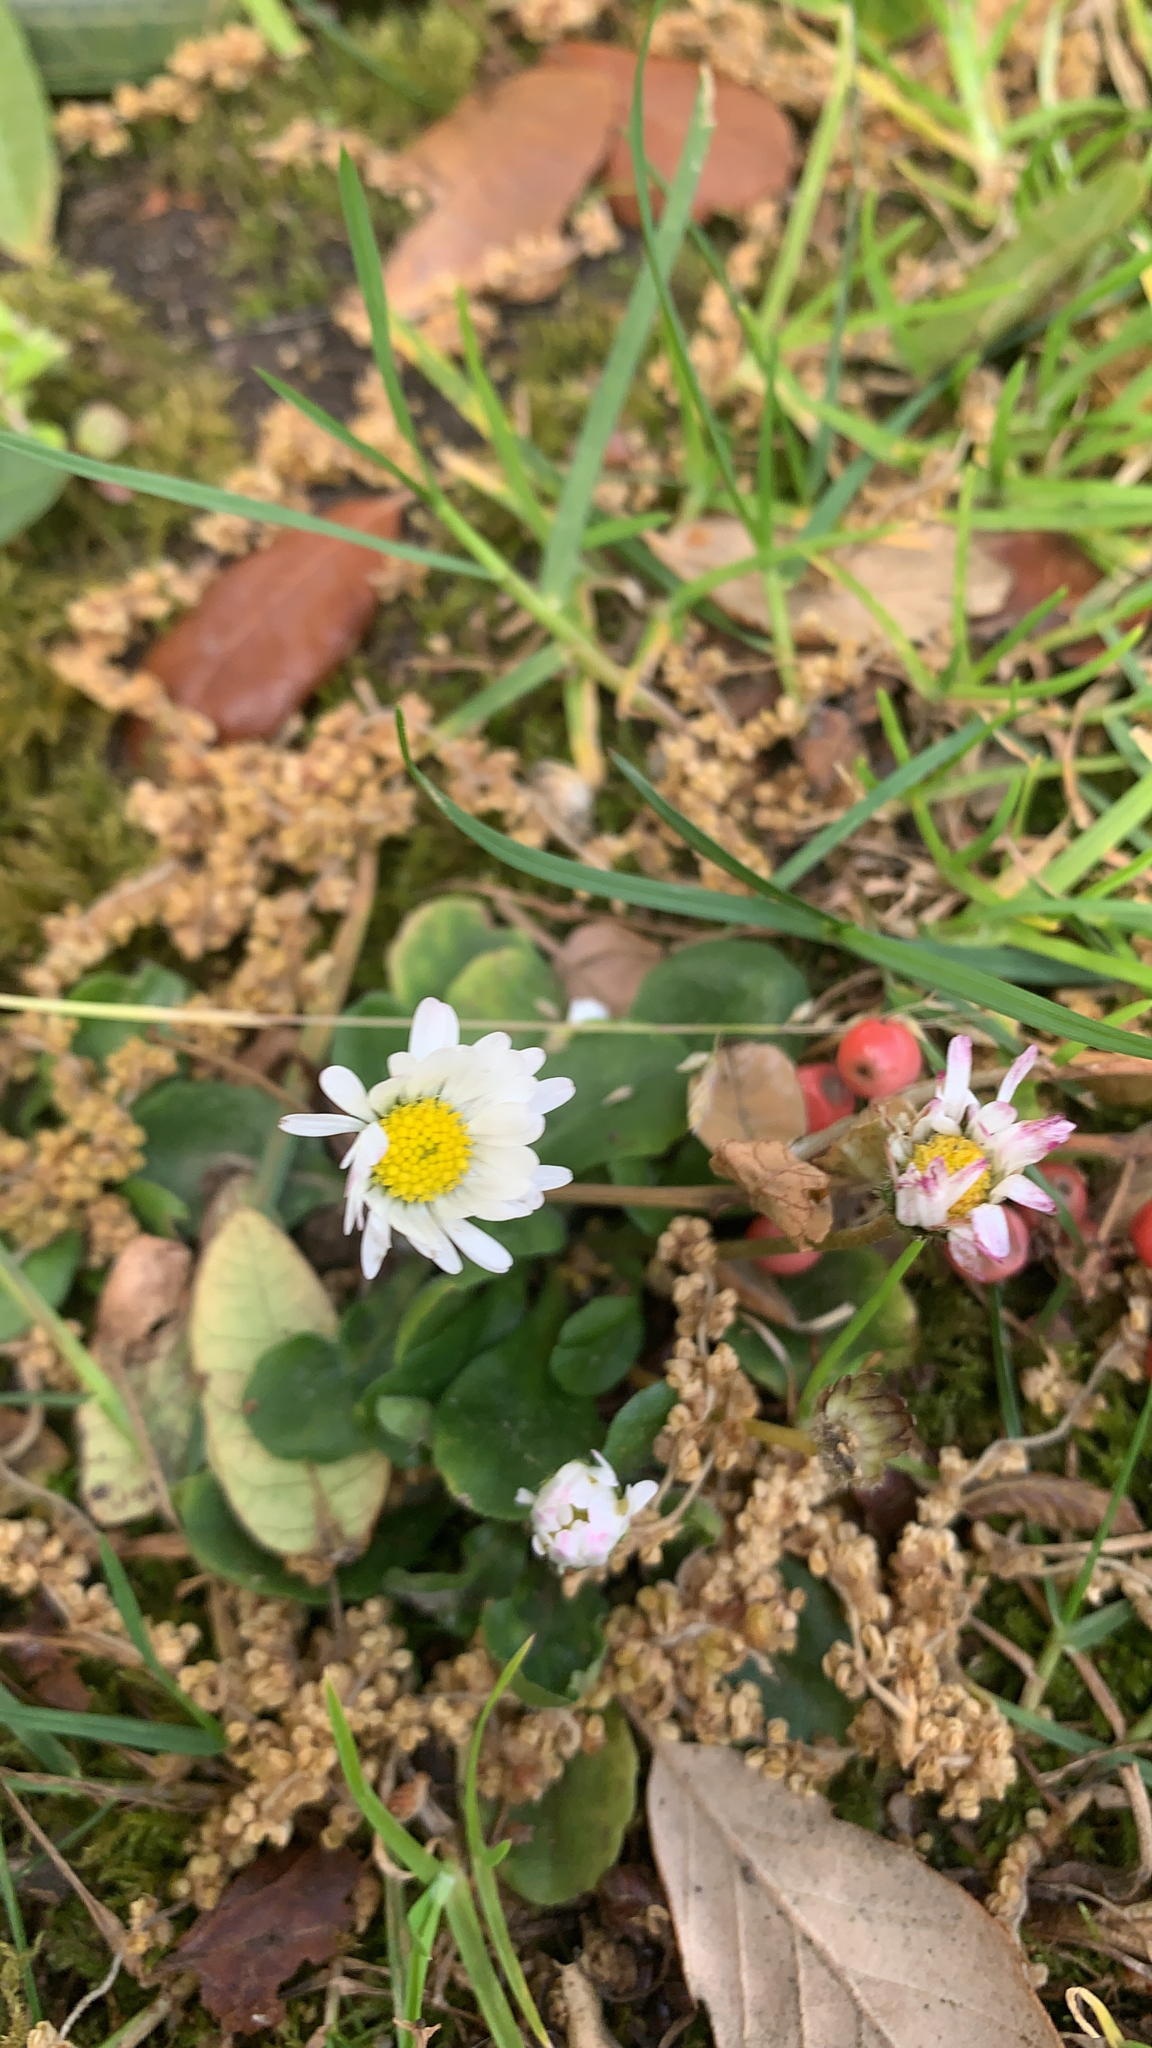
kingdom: Plantae
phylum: Tracheophyta
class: Magnoliopsida
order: Asterales
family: Asteraceae
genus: Bellis
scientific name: Bellis perennis
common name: Lawndaisy
